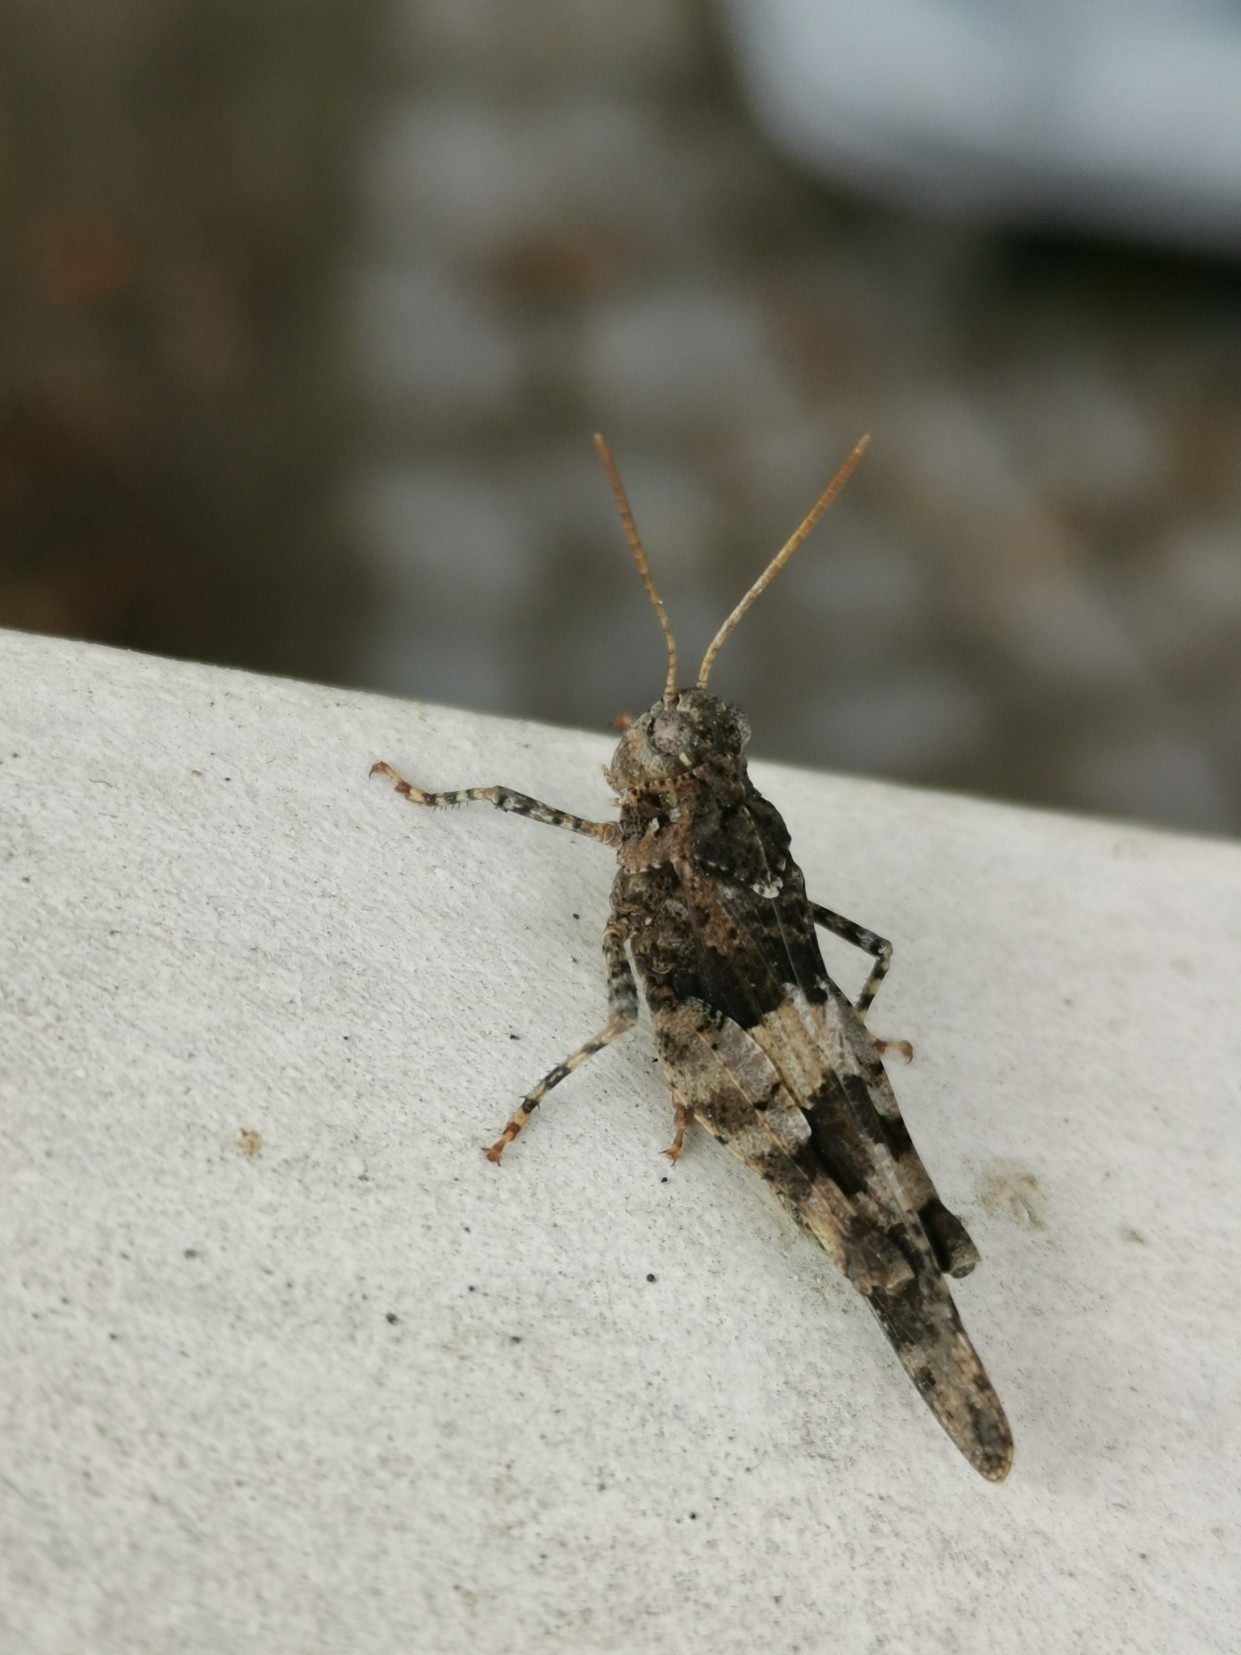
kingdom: Animalia
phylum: Arthropoda
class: Insecta
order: Orthoptera
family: Acrididae
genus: Oedipoda
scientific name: Oedipoda caerulescens
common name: Blue-winged grasshopper
